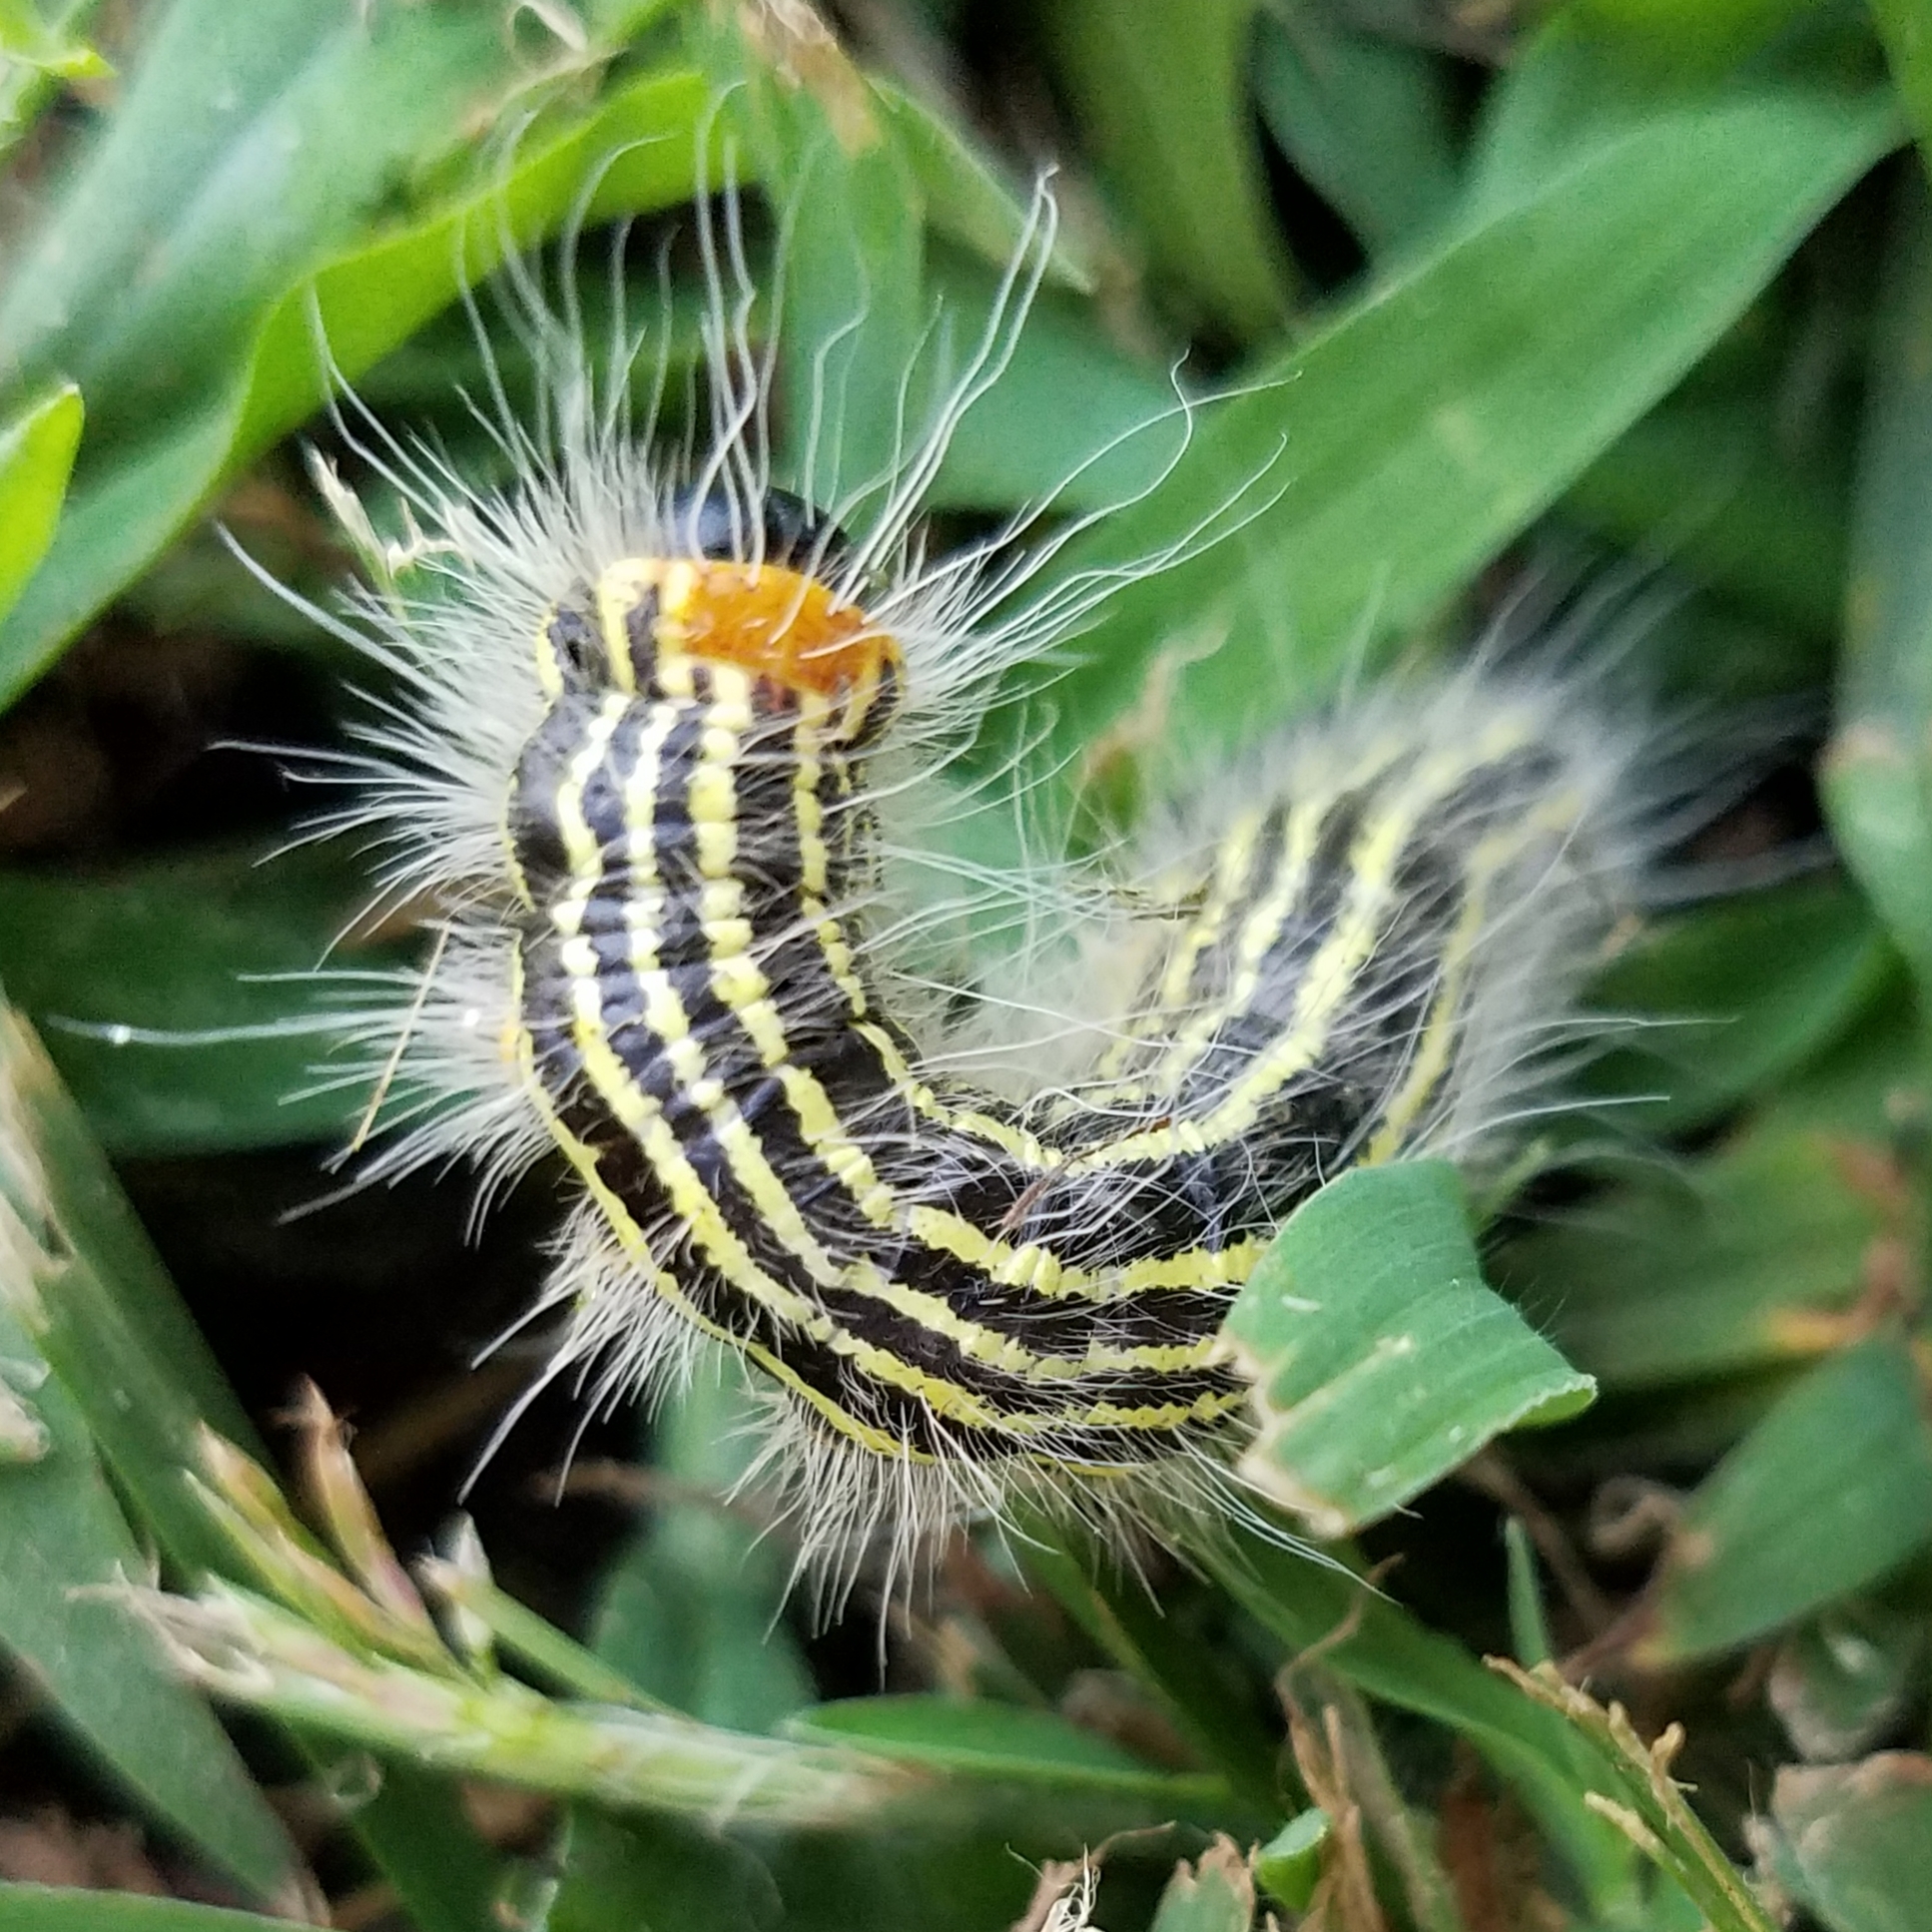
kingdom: Animalia
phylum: Arthropoda
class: Insecta
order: Lepidoptera
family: Notodontidae
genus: Datana
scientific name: Datana ministra
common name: Yellow-necked caterpillar moth
